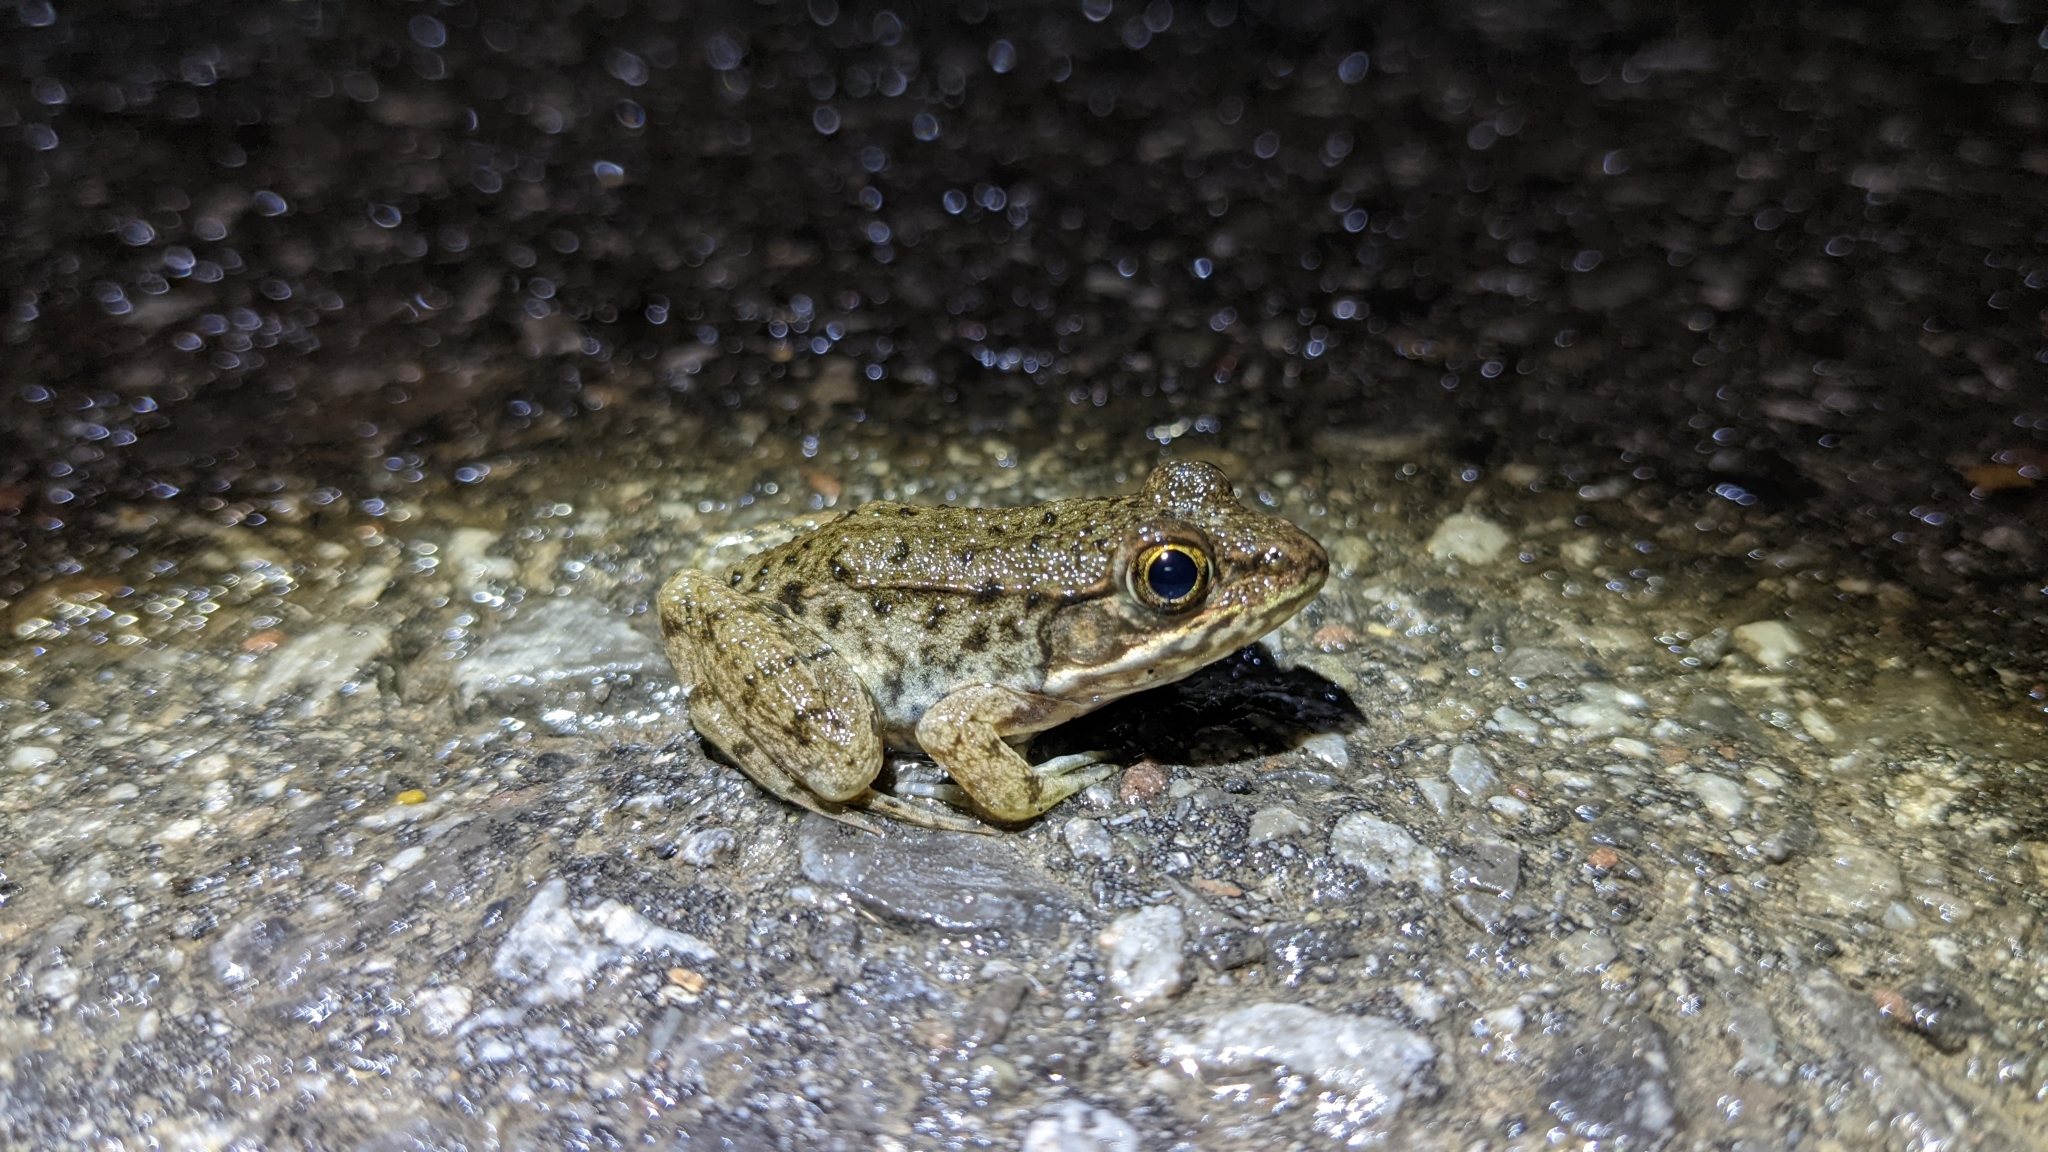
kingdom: Animalia
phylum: Chordata
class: Amphibia
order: Anura
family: Ranidae
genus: Lithobates
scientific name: Lithobates clamitans
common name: Green frog
